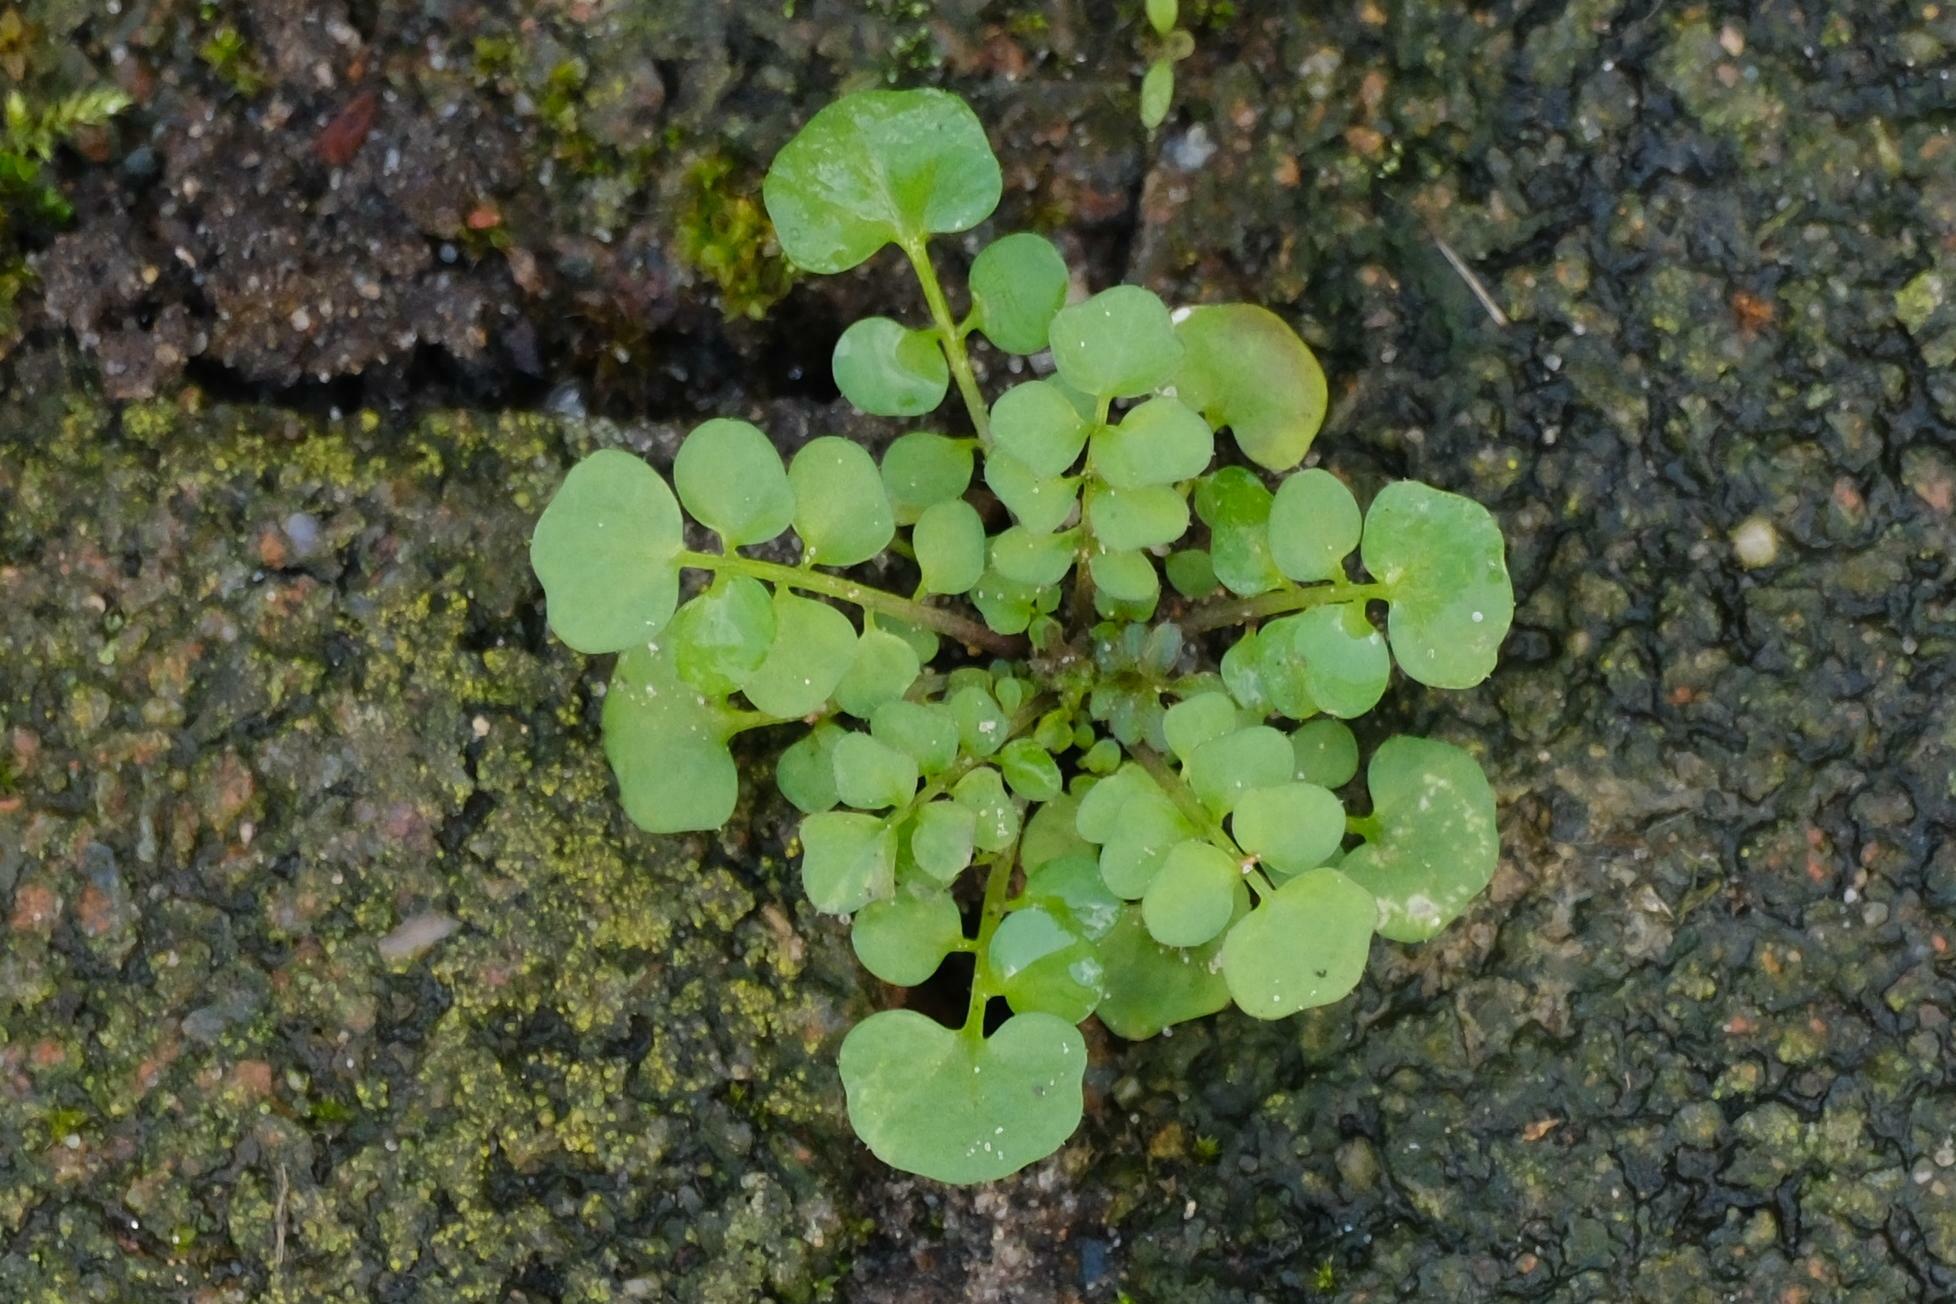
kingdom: Plantae
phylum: Tracheophyta
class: Magnoliopsida
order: Brassicales
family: Brassicaceae
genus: Cardamine
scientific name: Cardamine hirsuta
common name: Hairy bittercress
